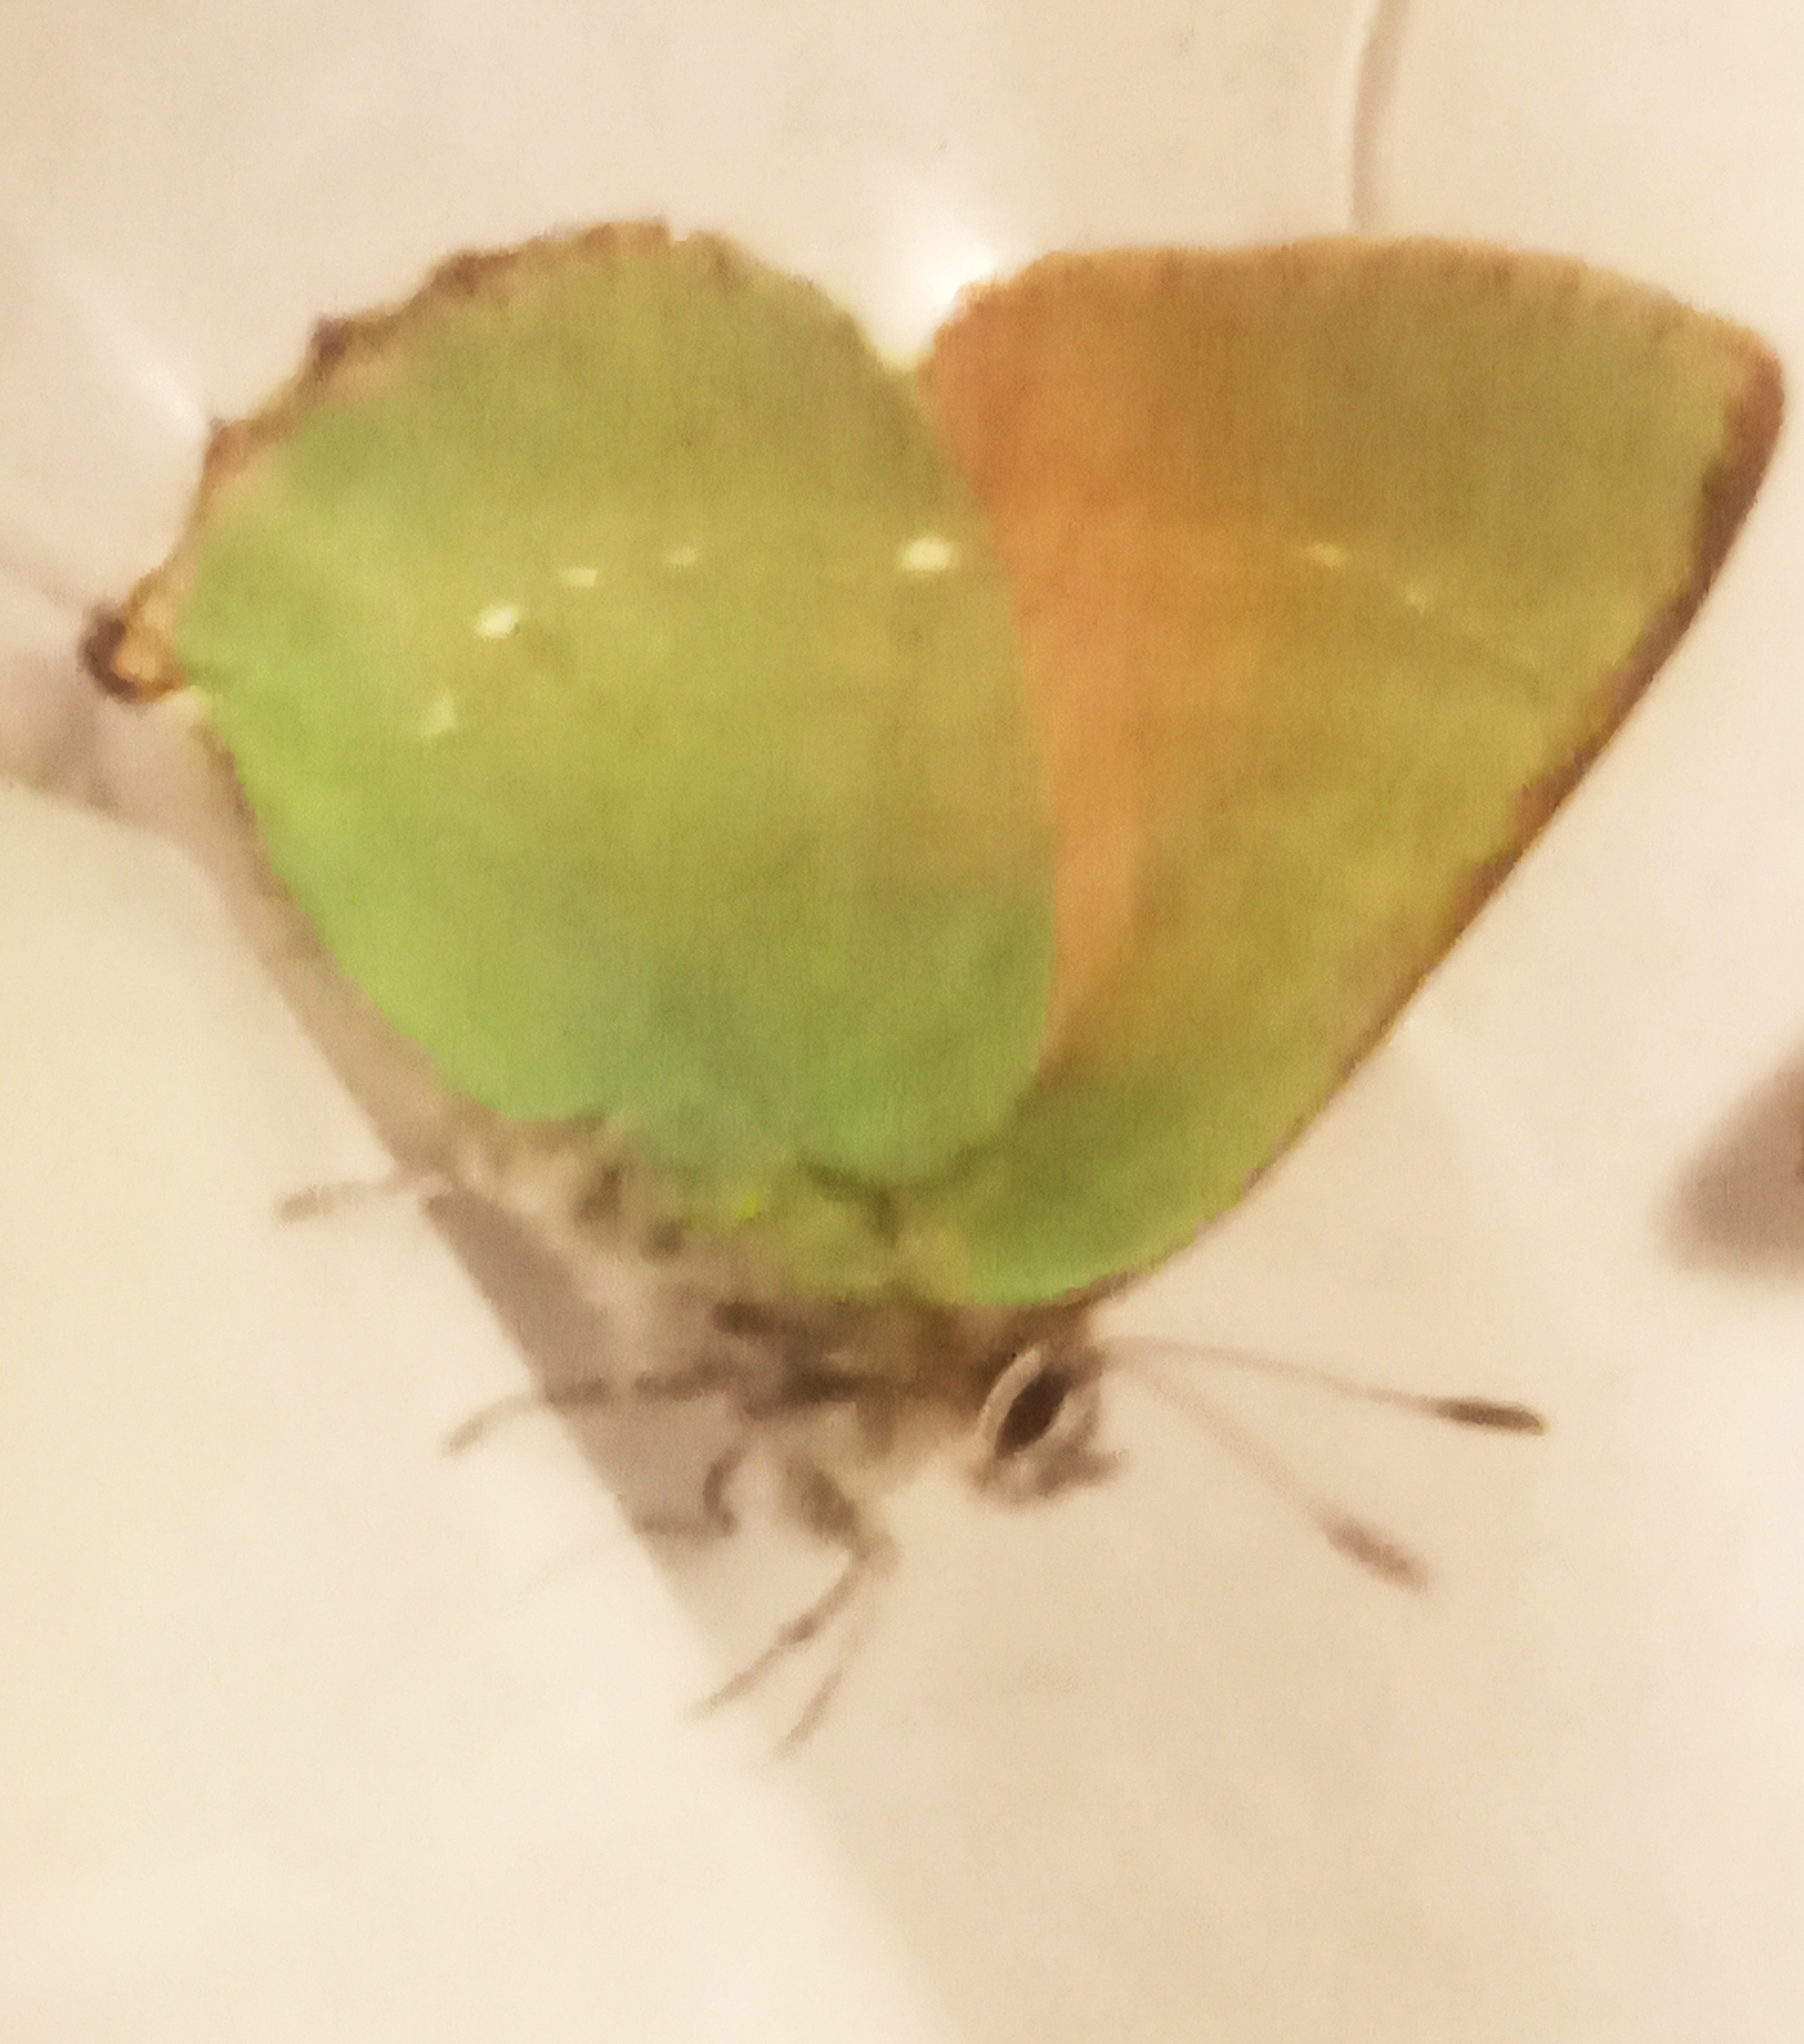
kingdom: Animalia
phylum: Arthropoda
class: Insecta
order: Lepidoptera
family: Lycaenidae
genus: Callophrys
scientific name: Callophrys rubi
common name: Green hairstreak
